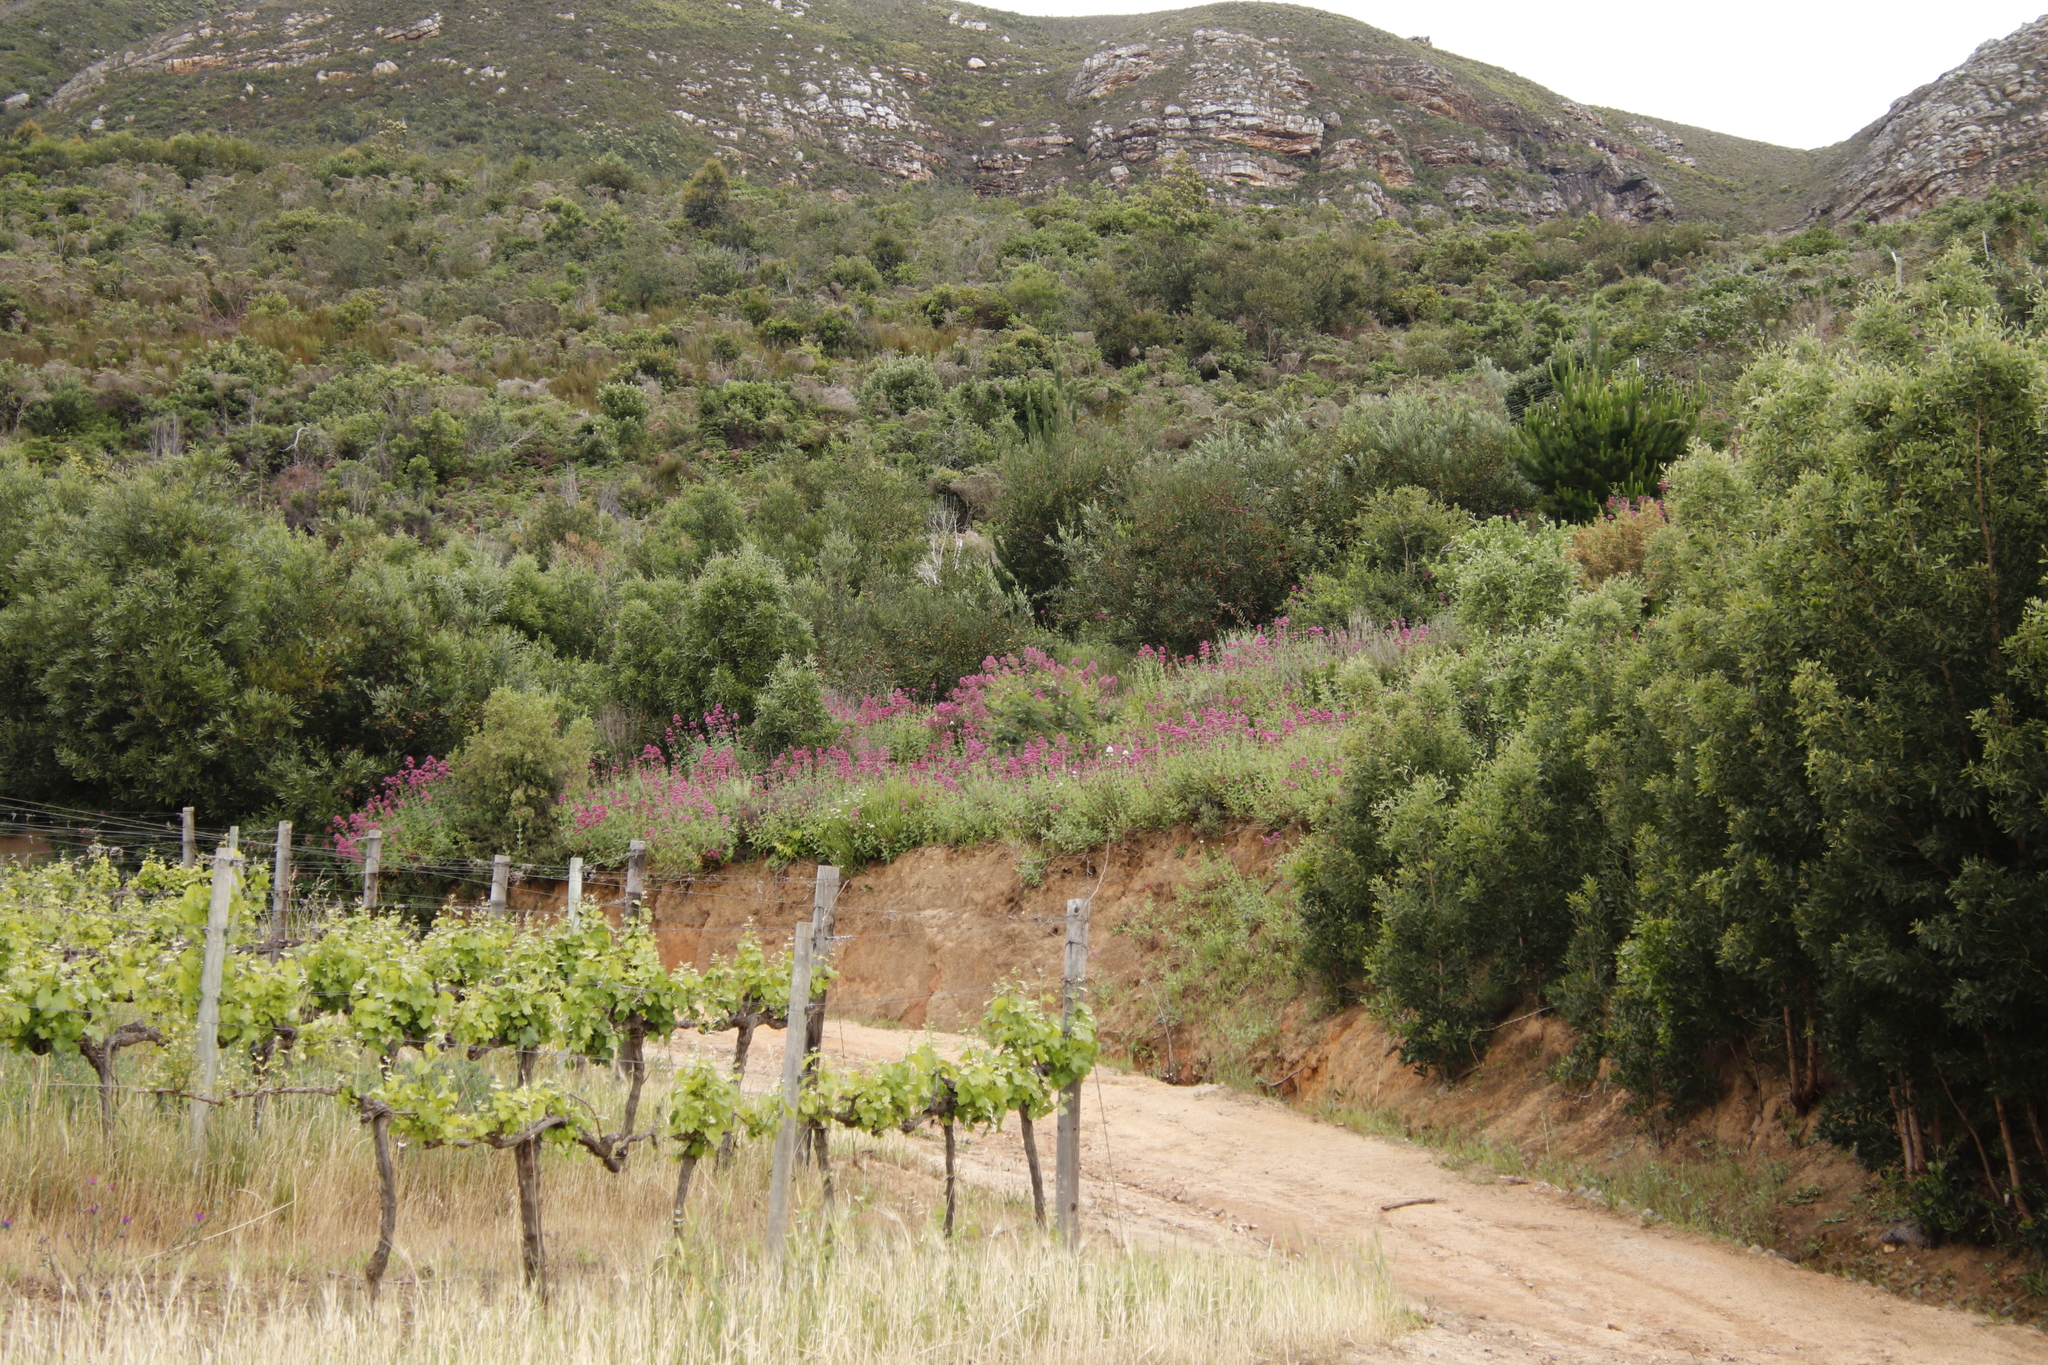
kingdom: Plantae
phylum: Tracheophyta
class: Magnoliopsida
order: Dipsacales
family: Caprifoliaceae
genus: Centranthus
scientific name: Centranthus ruber
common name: Red valerian
